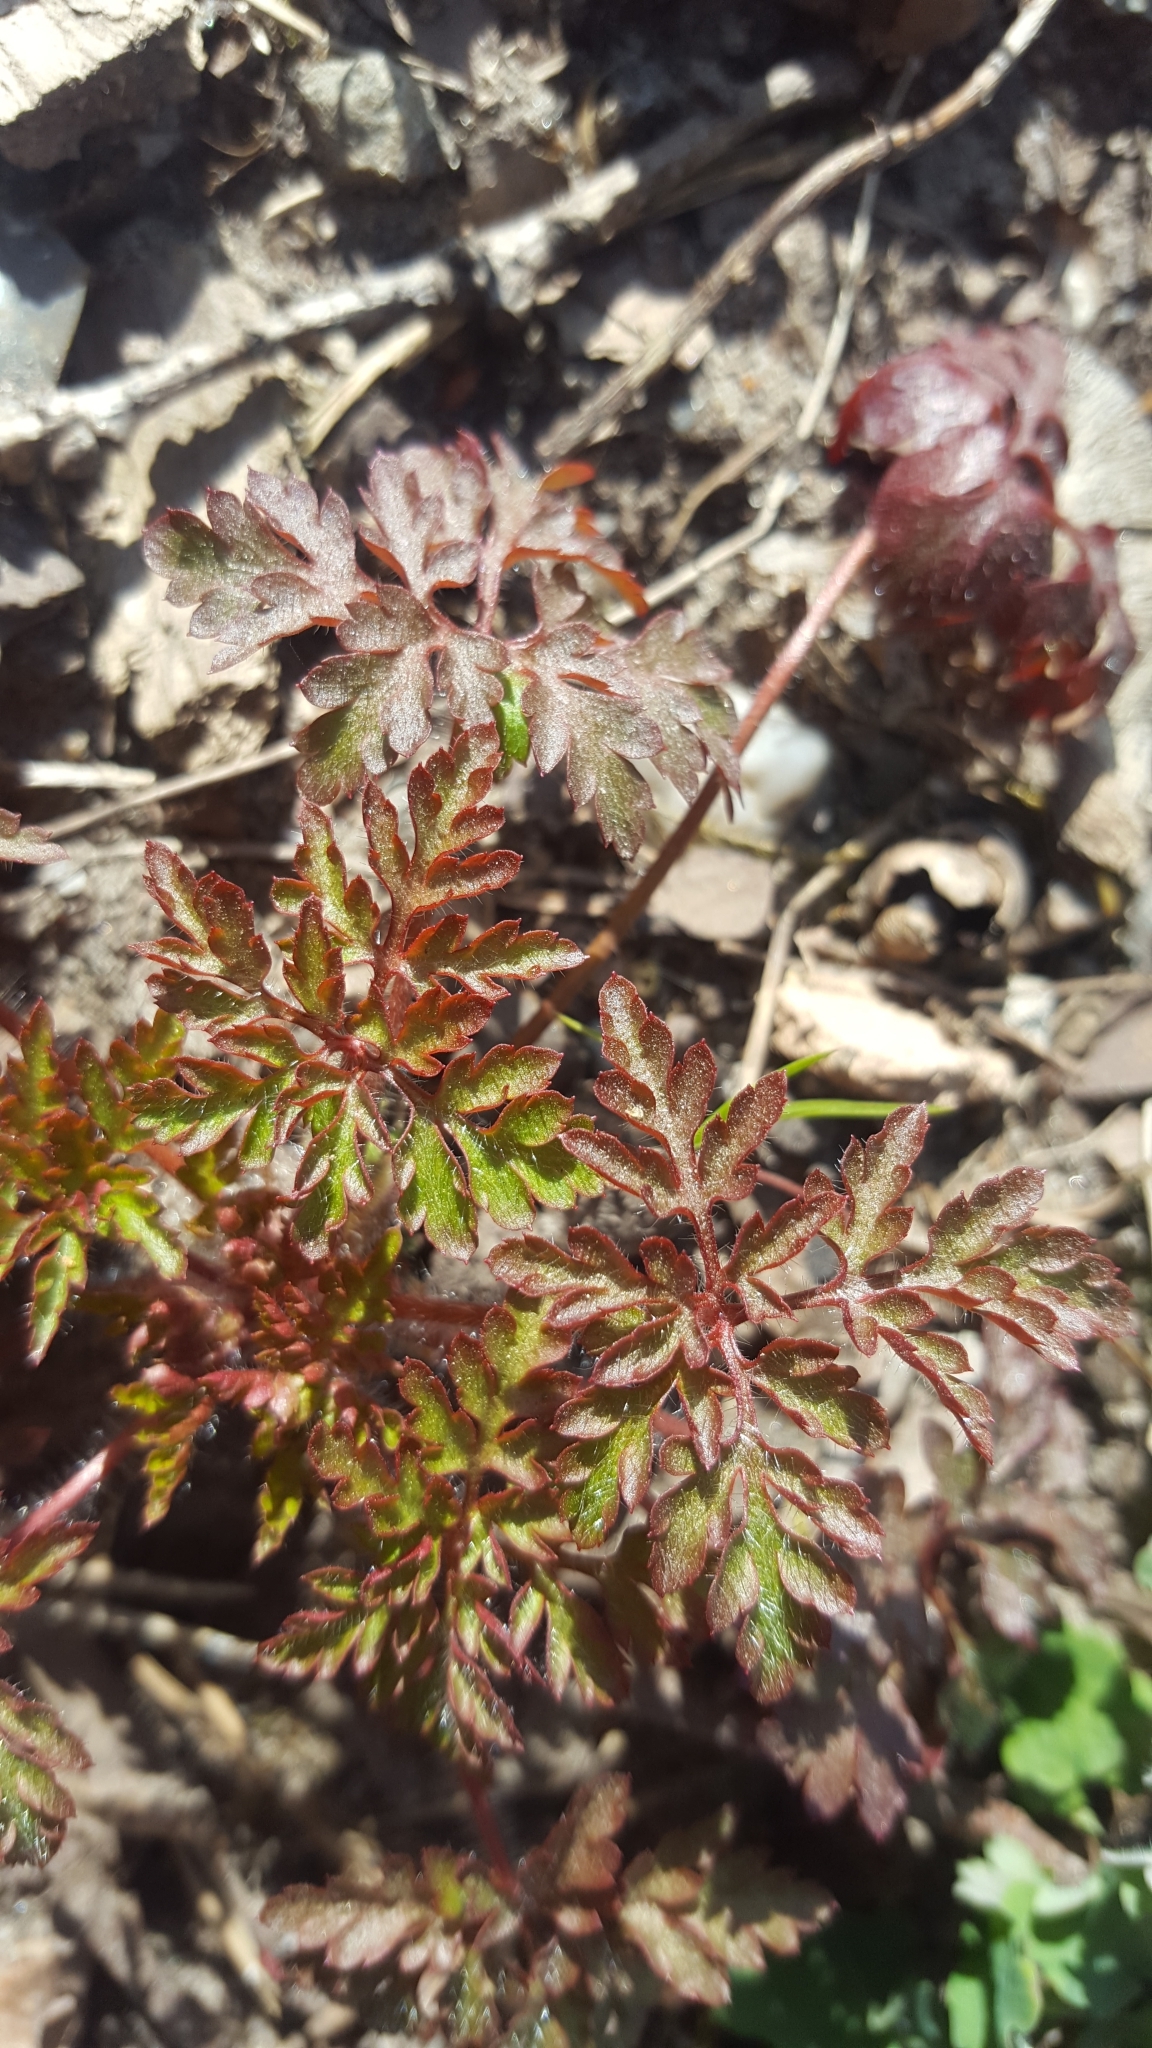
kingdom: Plantae
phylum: Tracheophyta
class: Magnoliopsida
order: Geraniales
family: Geraniaceae
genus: Geranium
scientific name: Geranium robertianum
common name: Herb-robert
